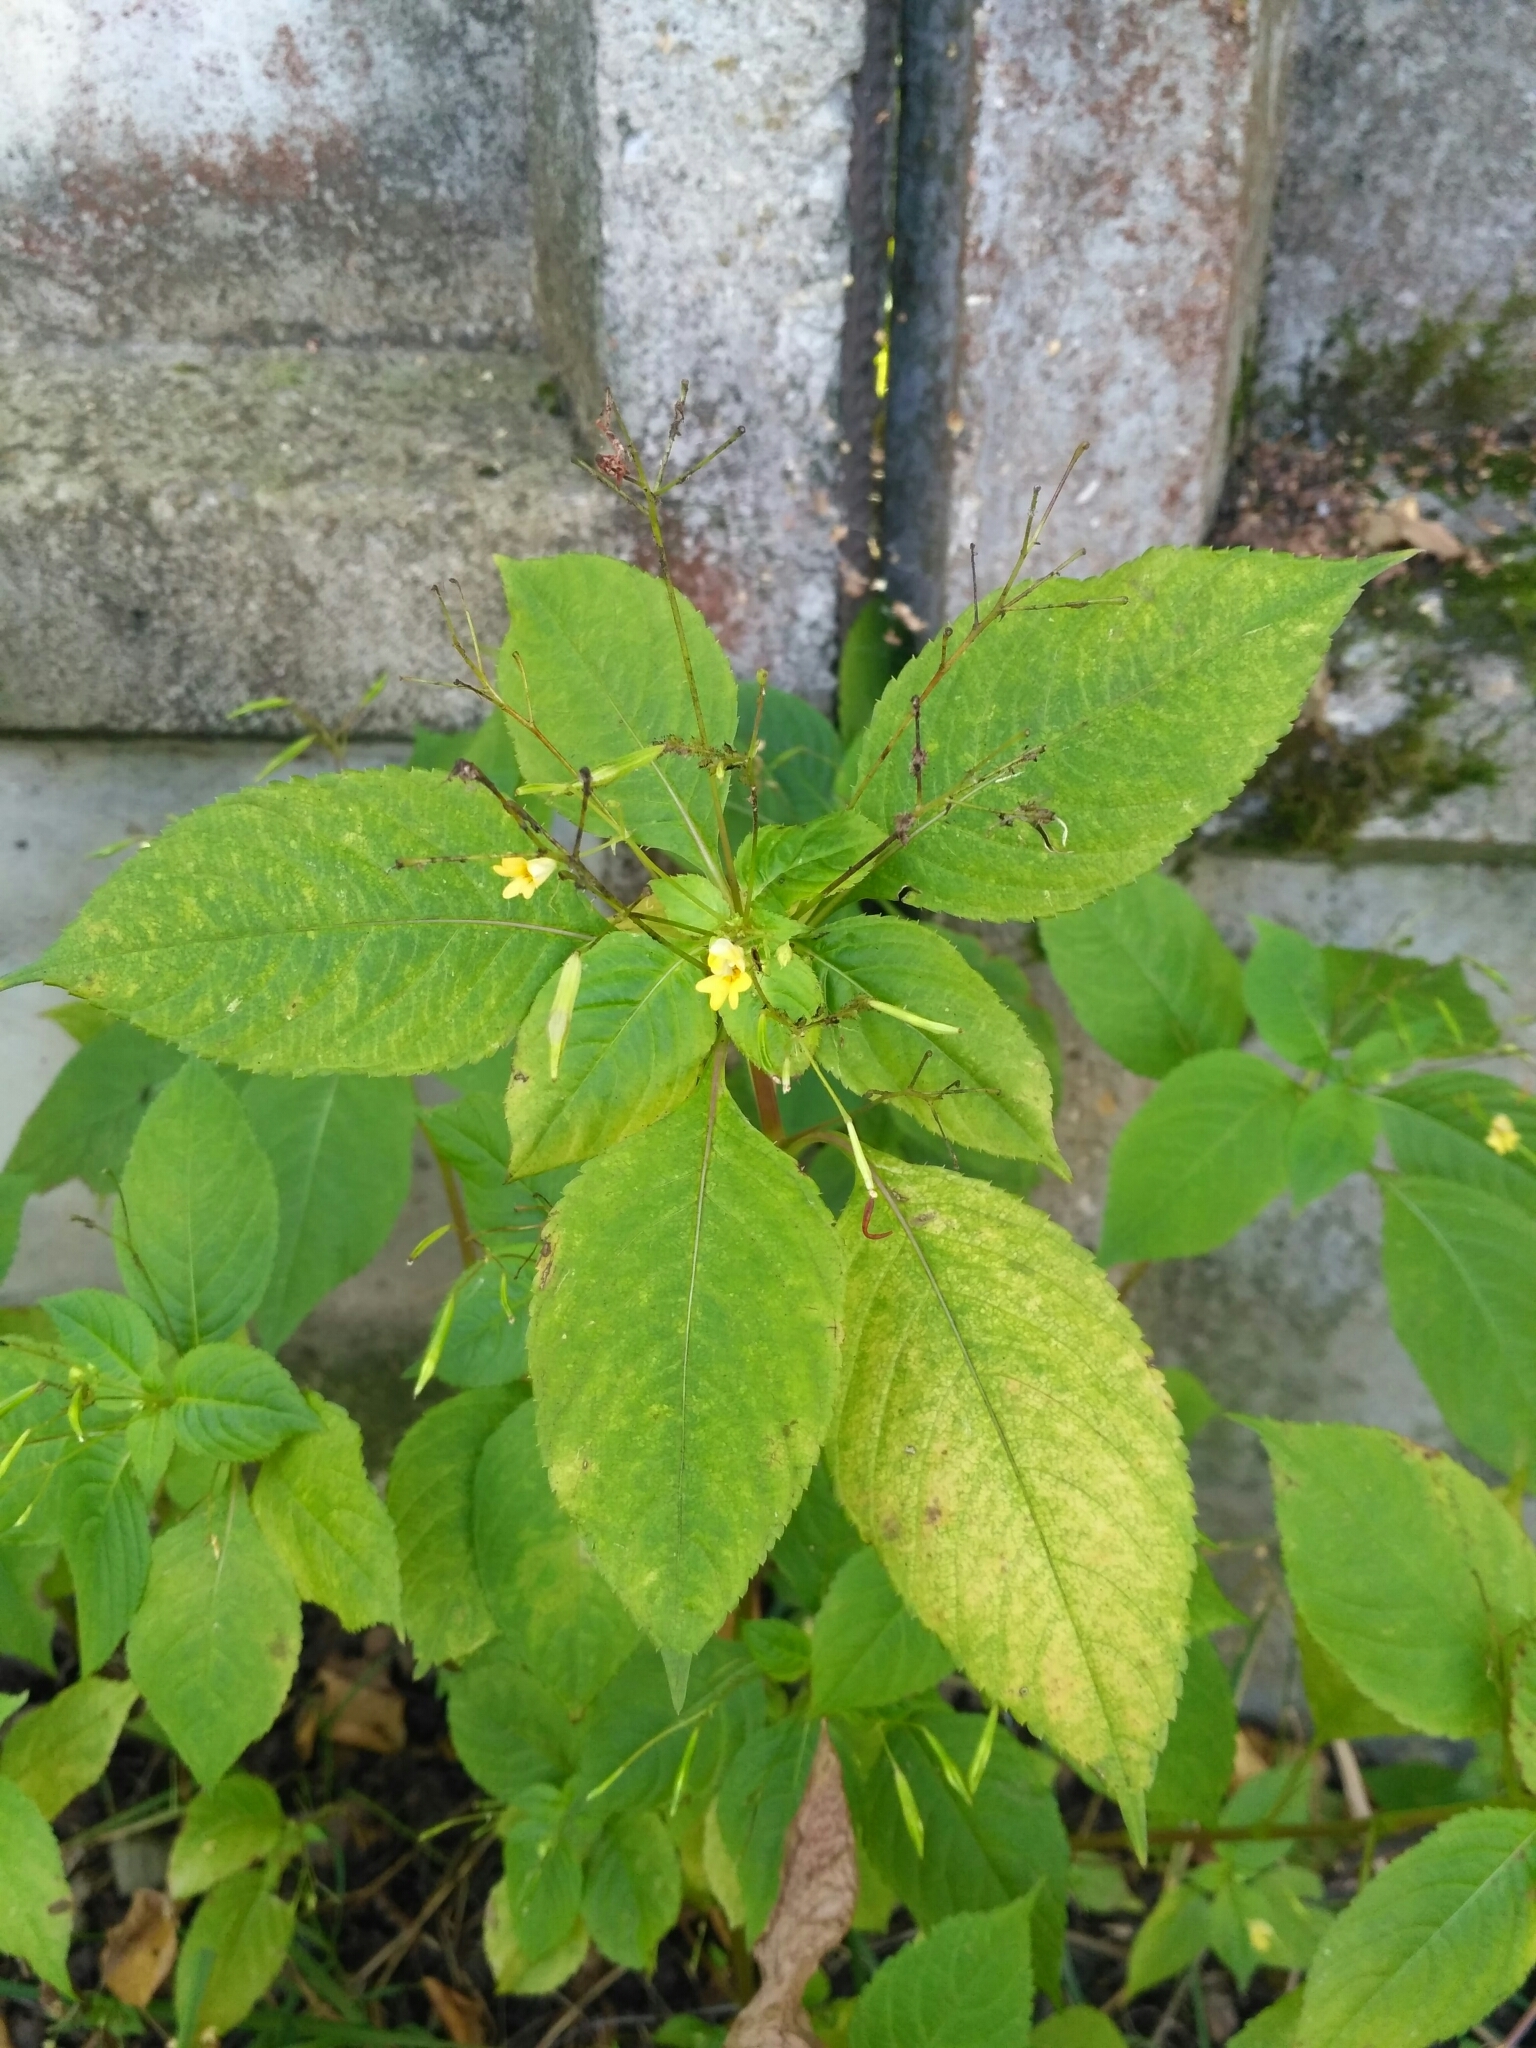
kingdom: Plantae
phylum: Tracheophyta
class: Magnoliopsida
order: Ericales
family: Balsaminaceae
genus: Impatiens
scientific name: Impatiens parviflora
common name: Small balsam
